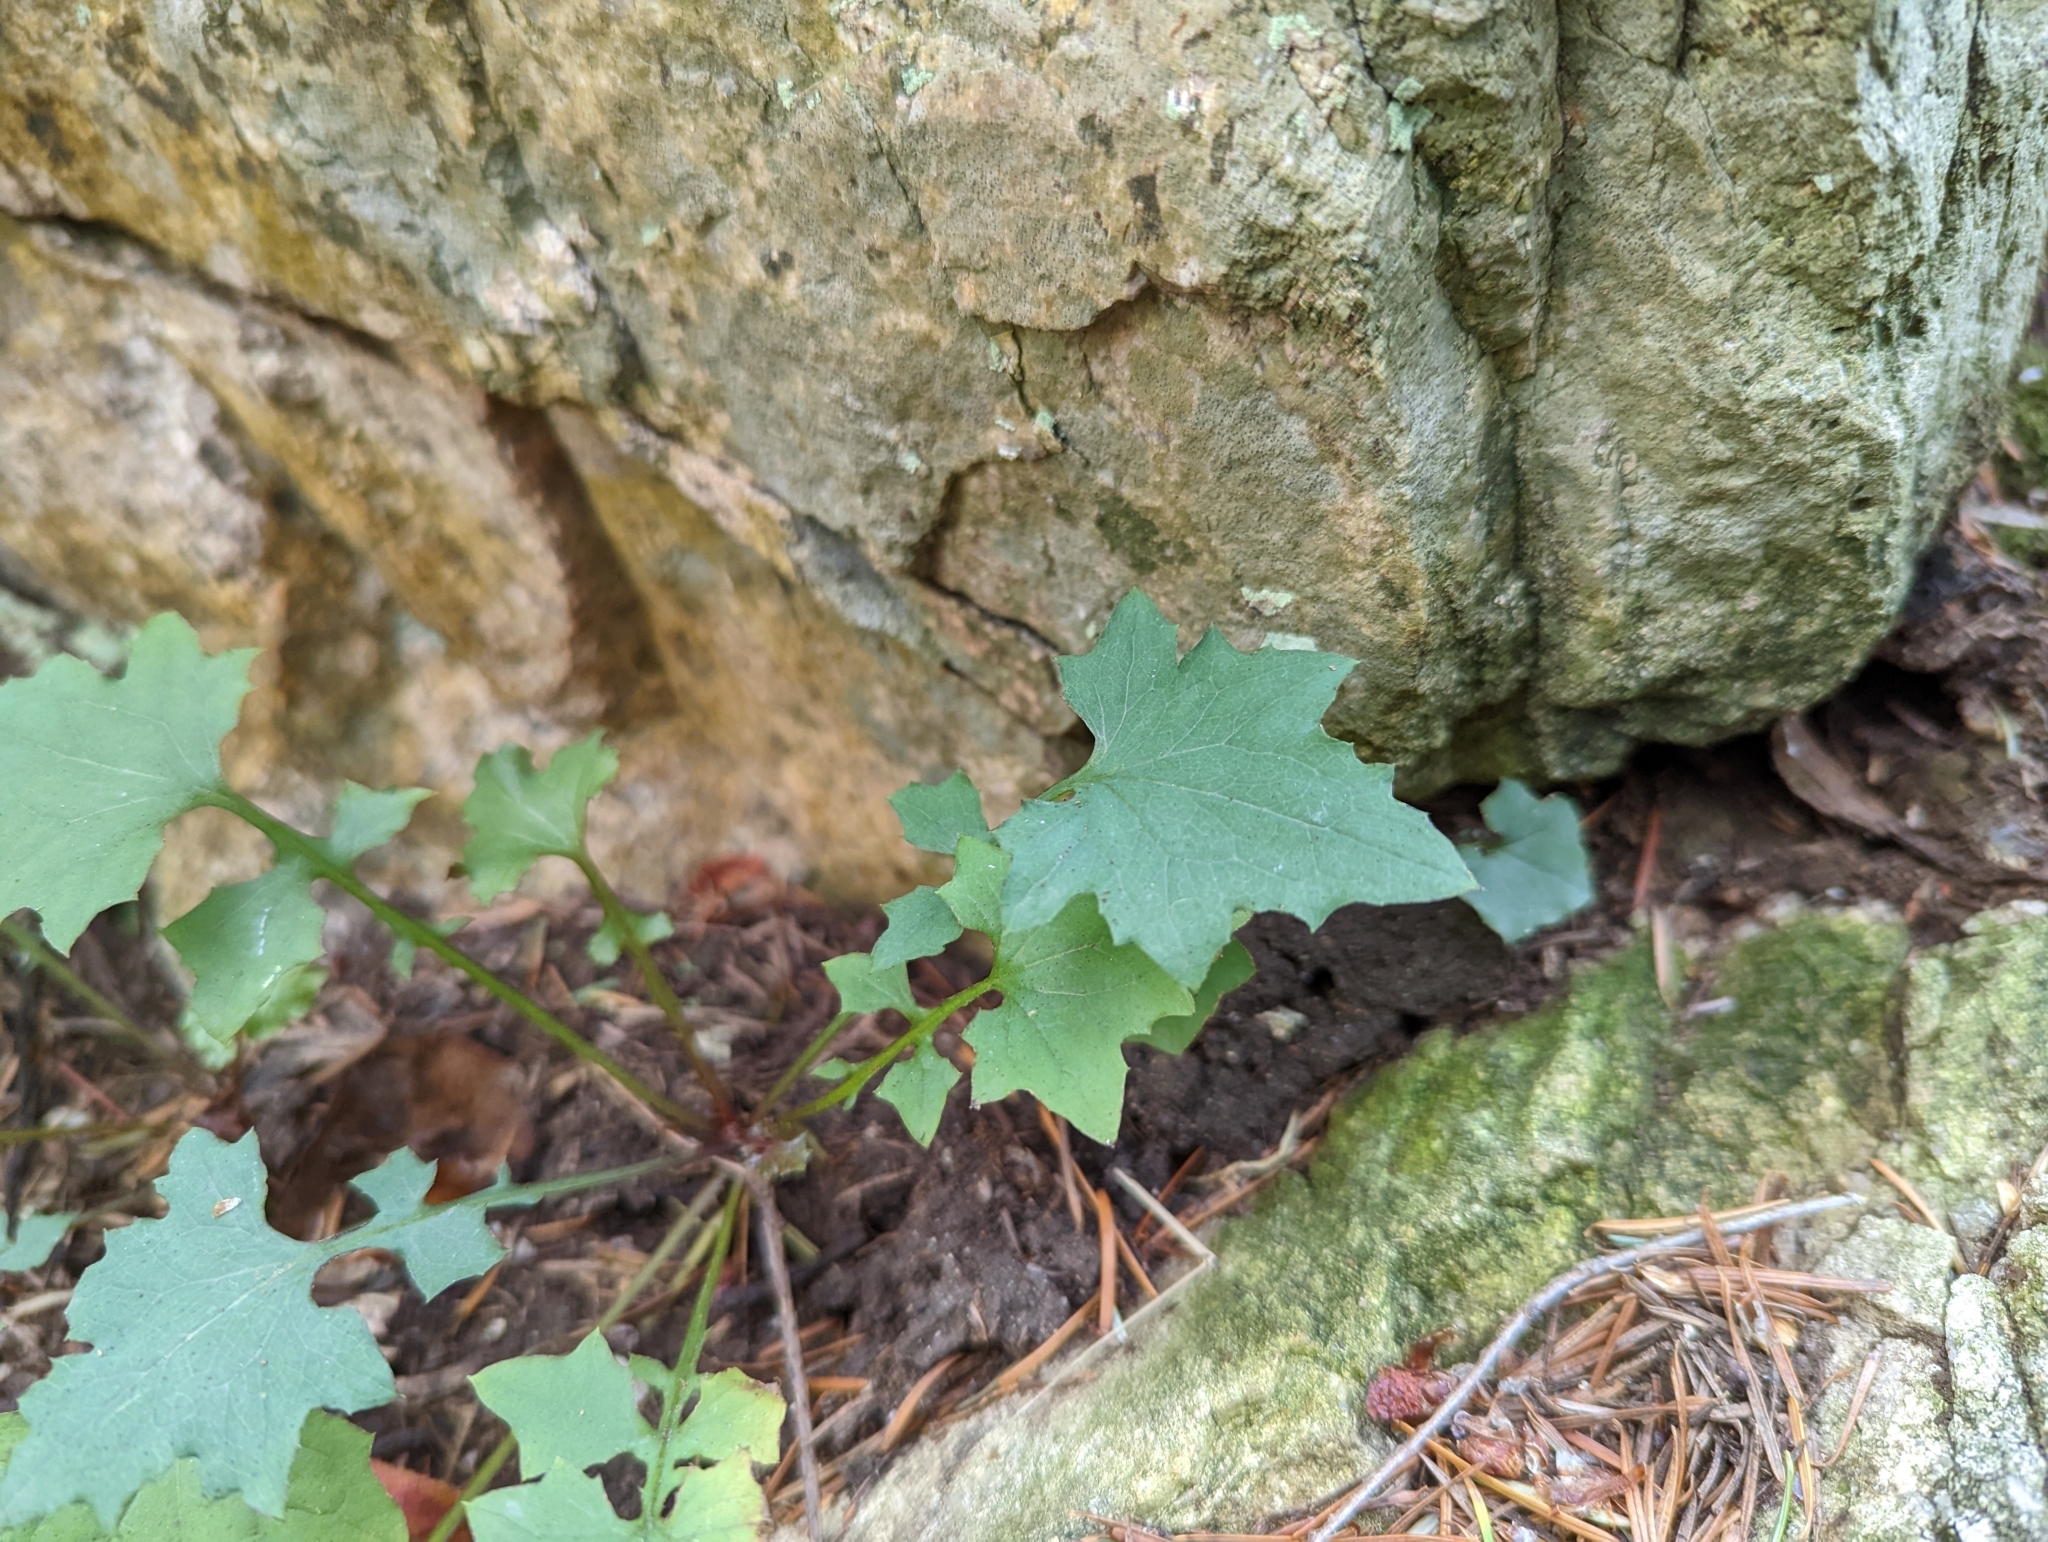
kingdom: Plantae
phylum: Tracheophyta
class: Magnoliopsida
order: Asterales
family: Asteraceae
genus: Mycelis
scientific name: Mycelis muralis
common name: Wall lettuce
